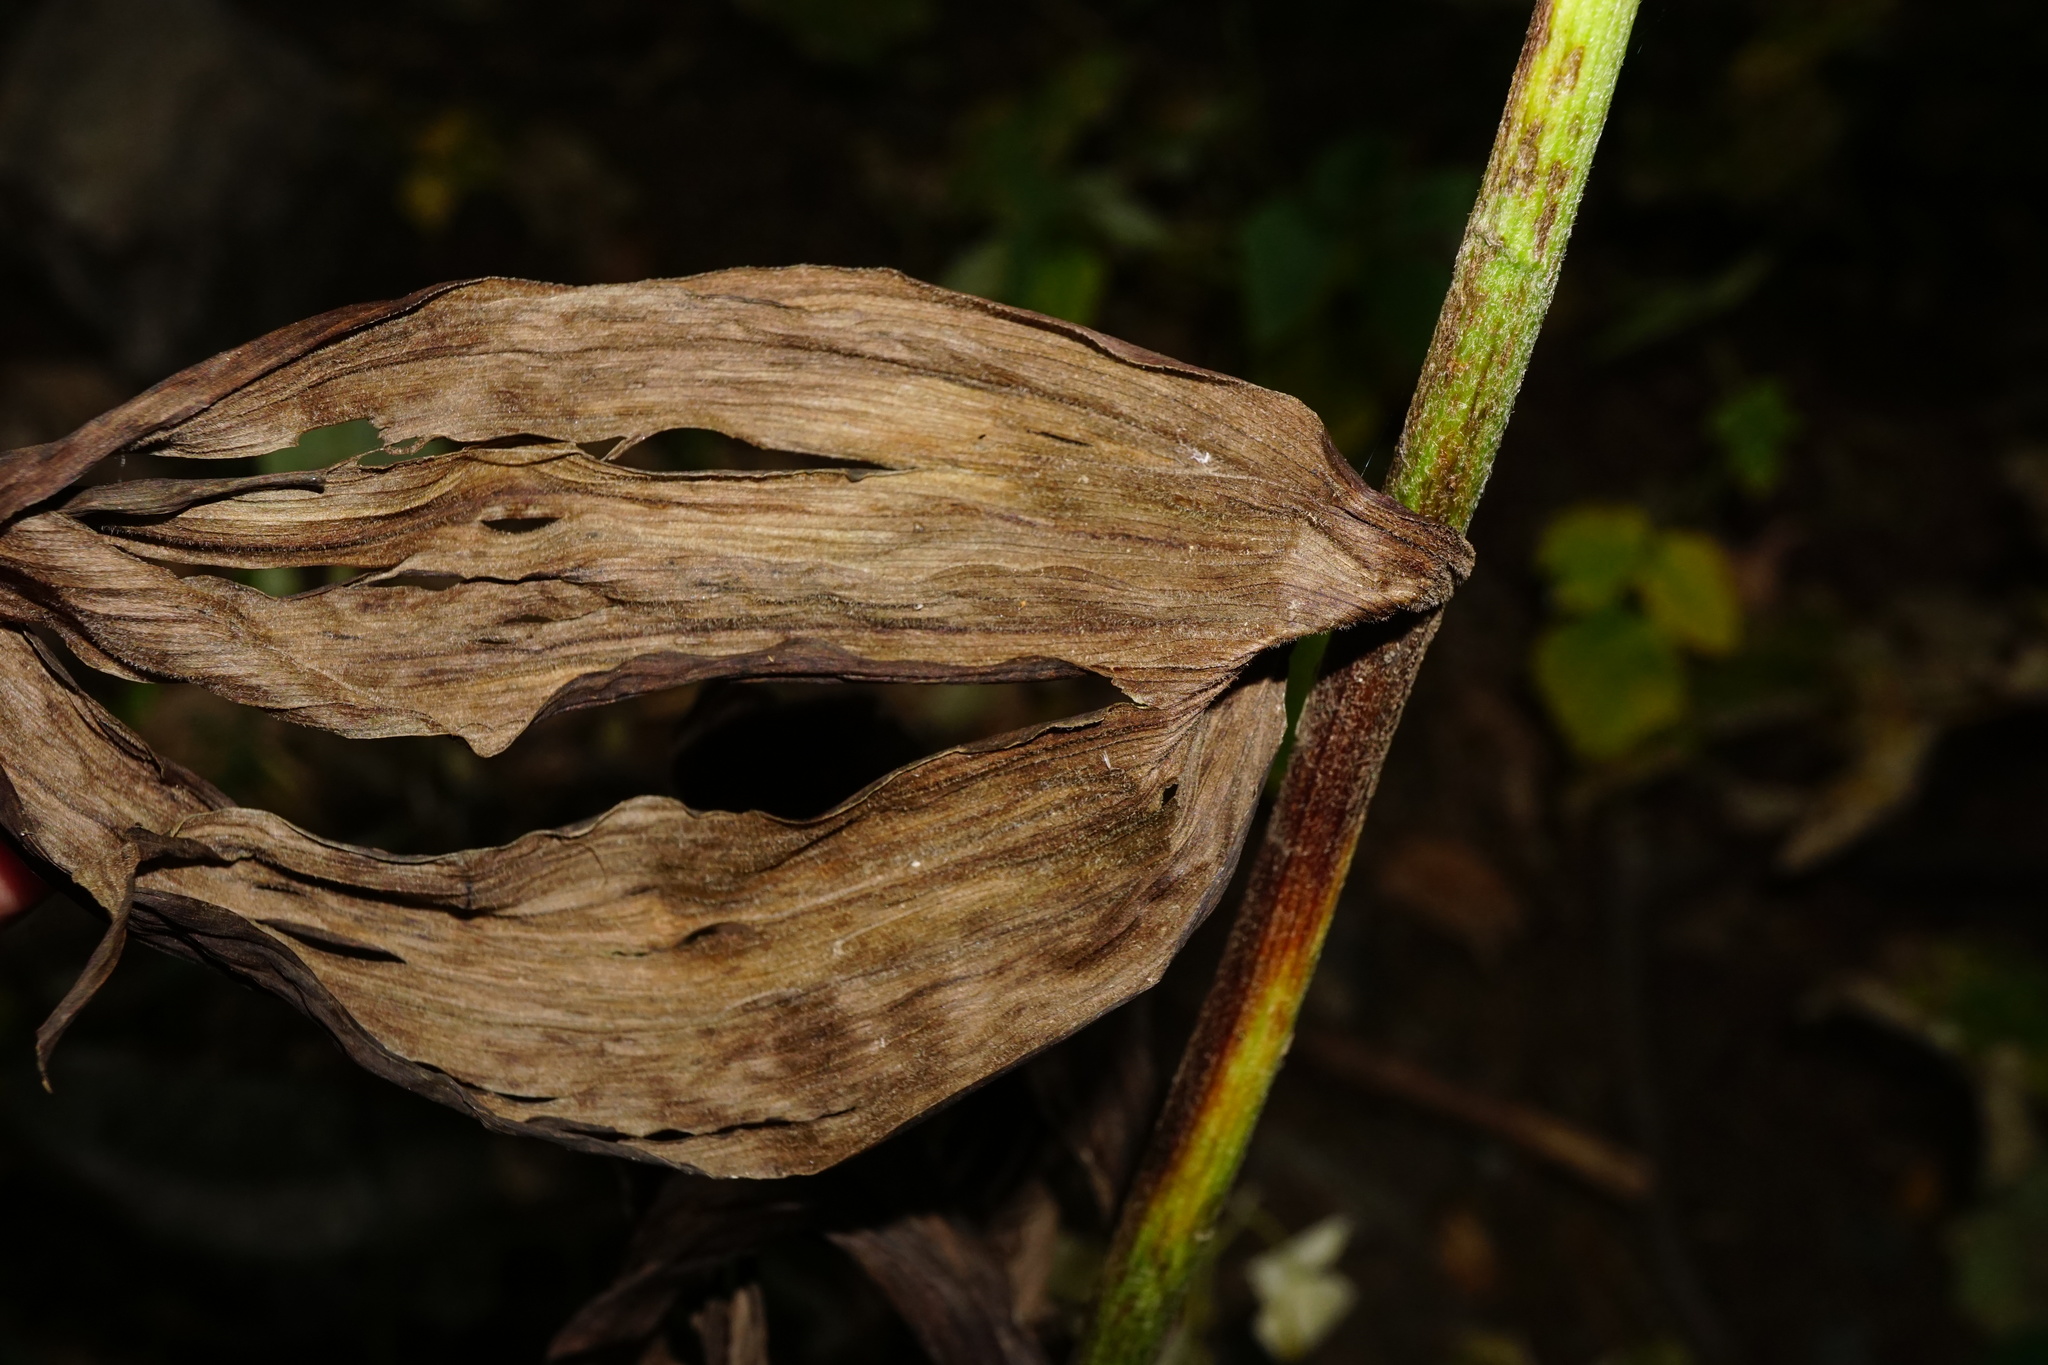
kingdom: Plantae
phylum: Tracheophyta
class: Liliopsida
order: Liliales
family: Melanthiaceae
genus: Veratrum
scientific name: Veratrum album
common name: White veratrum
